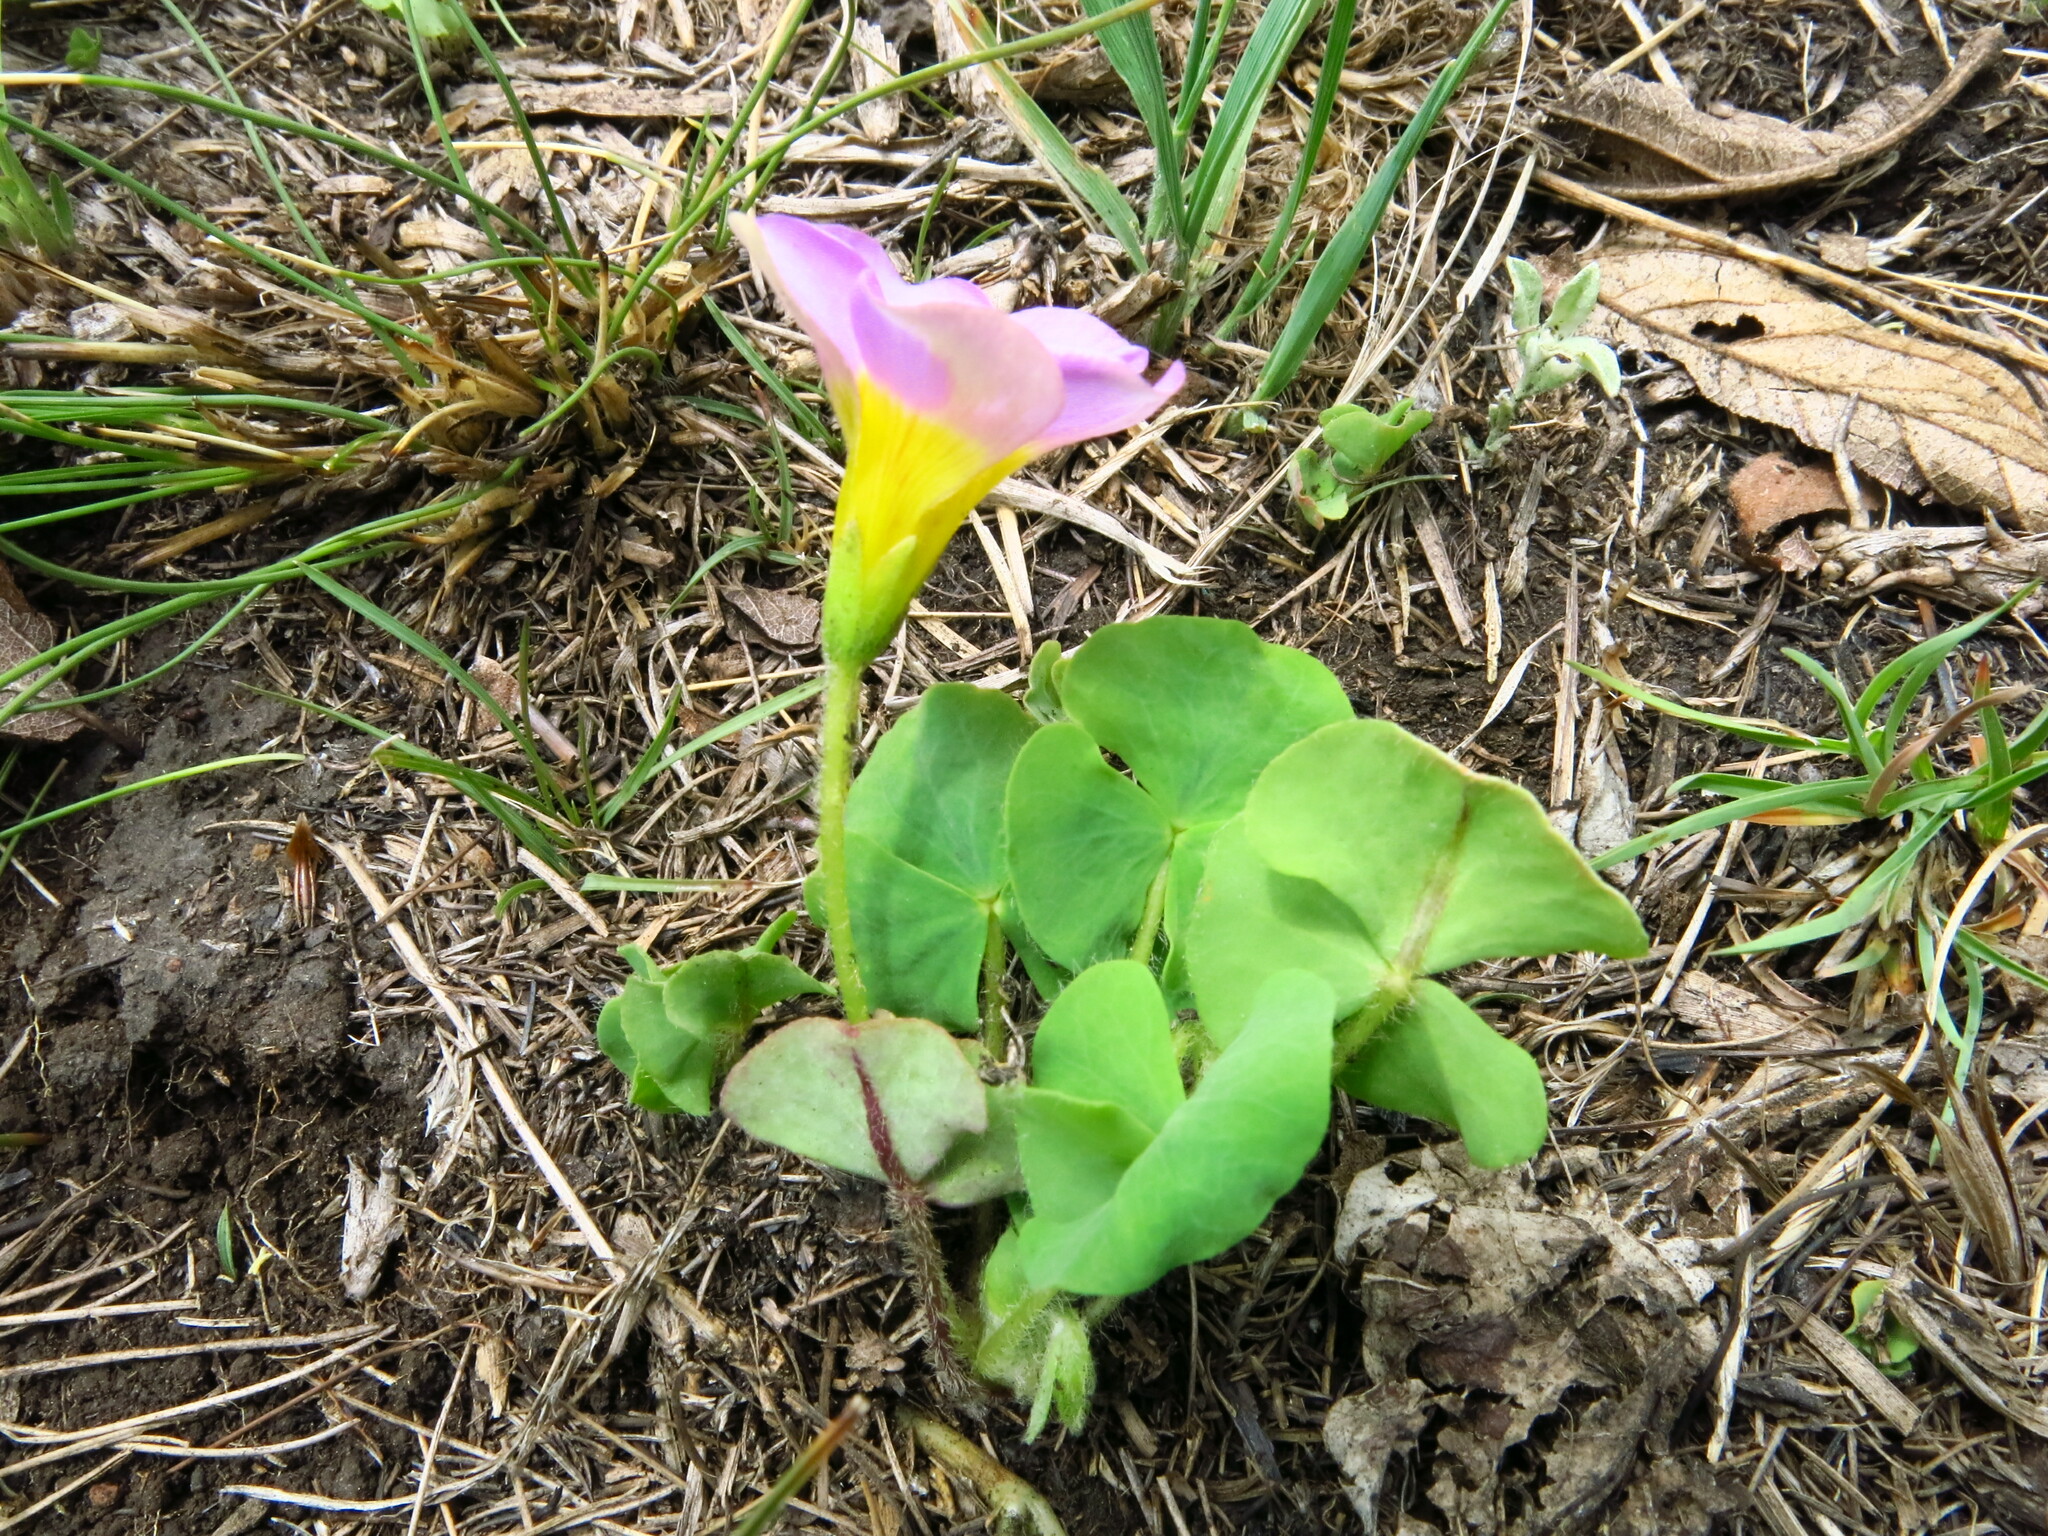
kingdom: Plantae
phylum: Tracheophyta
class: Magnoliopsida
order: Oxalidales
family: Oxalidaceae
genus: Oxalis
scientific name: Oxalis obliquifolia
